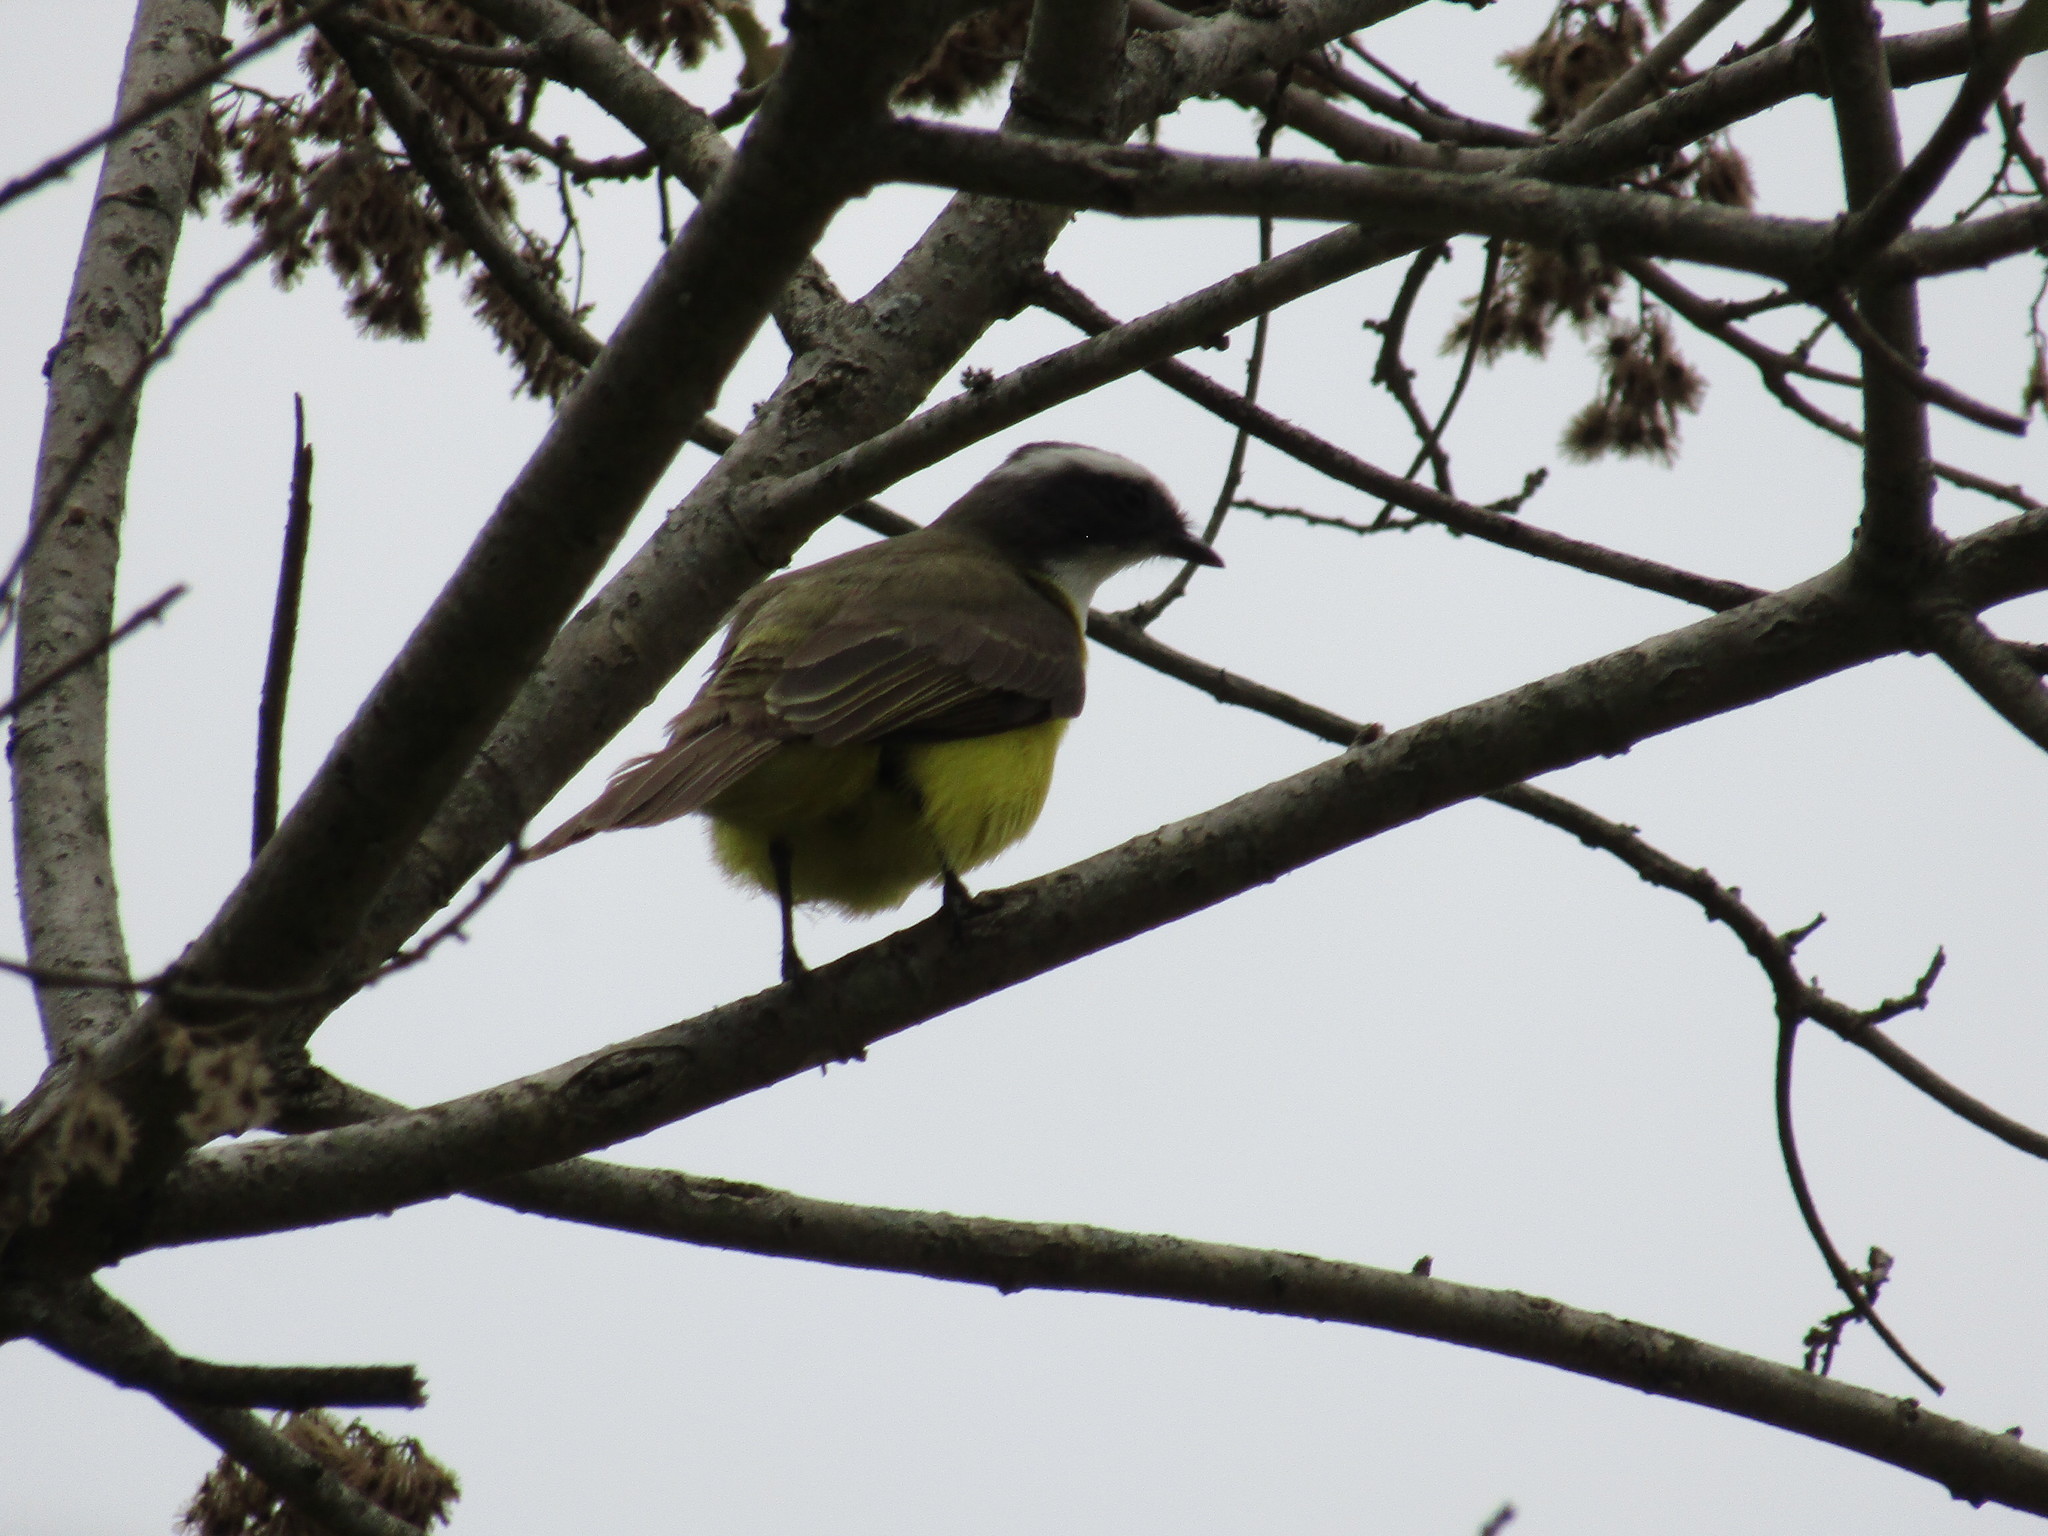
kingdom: Animalia
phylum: Chordata
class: Aves
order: Passeriformes
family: Tyrannidae
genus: Myiozetetes
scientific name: Myiozetetes similis
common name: Social flycatcher
